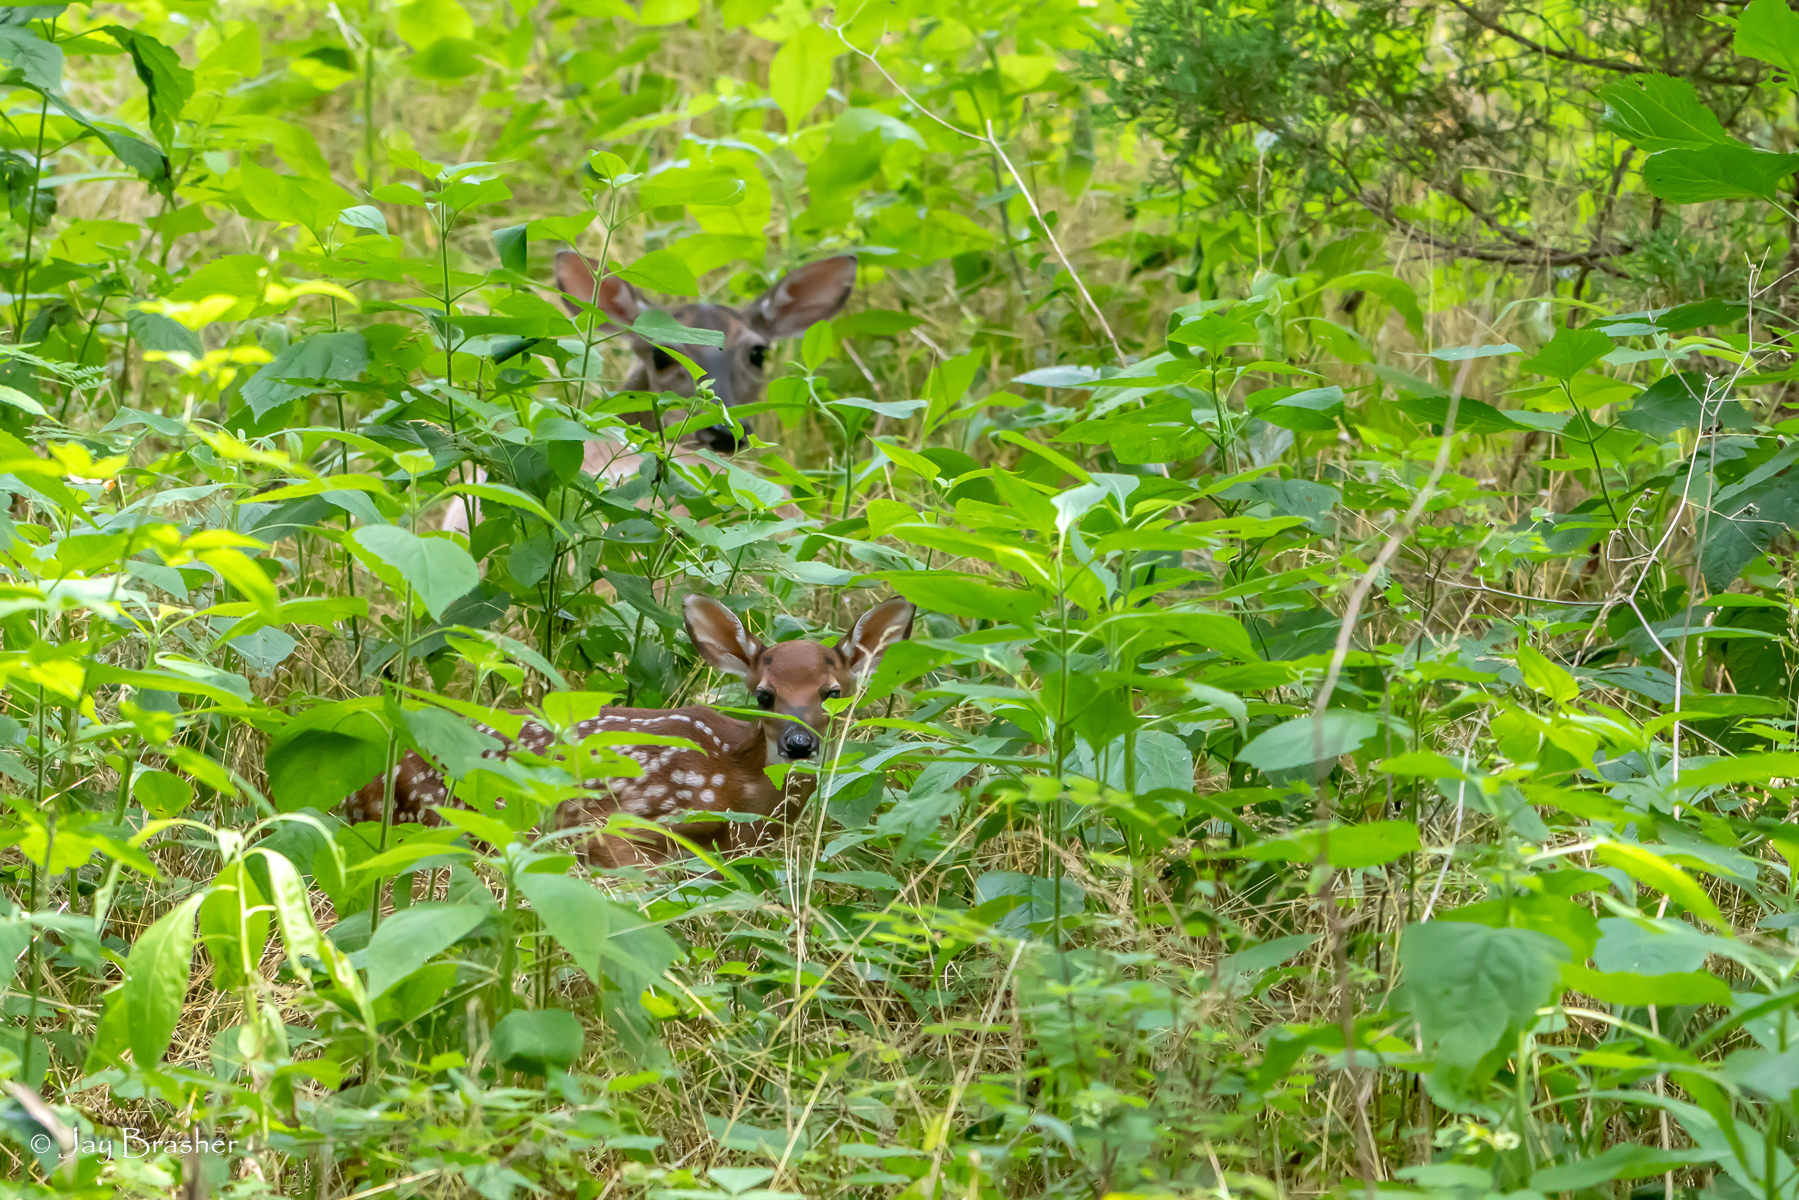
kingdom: Animalia
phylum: Chordata
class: Mammalia
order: Artiodactyla
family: Cervidae
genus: Odocoileus
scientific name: Odocoileus virginianus
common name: White-tailed deer
